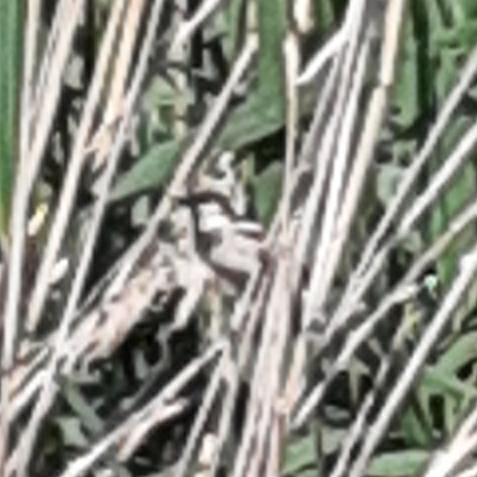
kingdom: Animalia
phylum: Chordata
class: Aves
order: Passeriformes
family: Passeridae
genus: Passer
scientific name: Passer domesticus
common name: House sparrow
